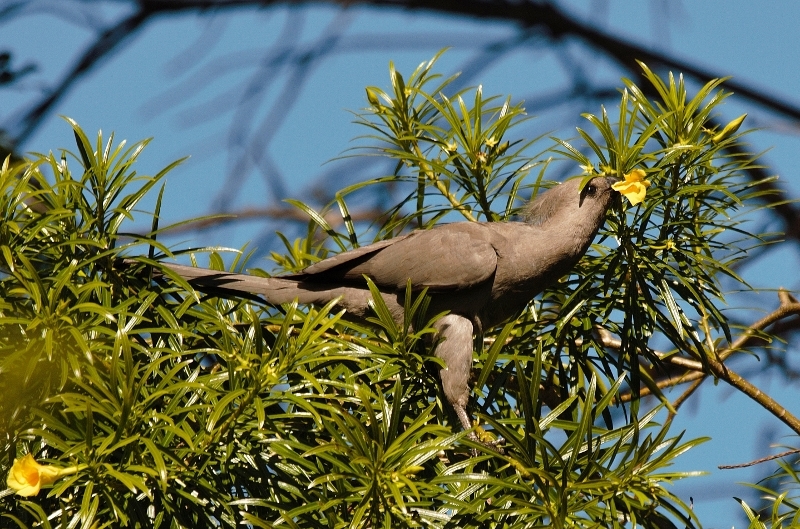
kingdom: Animalia
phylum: Chordata
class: Aves
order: Musophagiformes
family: Musophagidae
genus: Corythaixoides
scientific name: Corythaixoides concolor
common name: Grey go-away-bird
